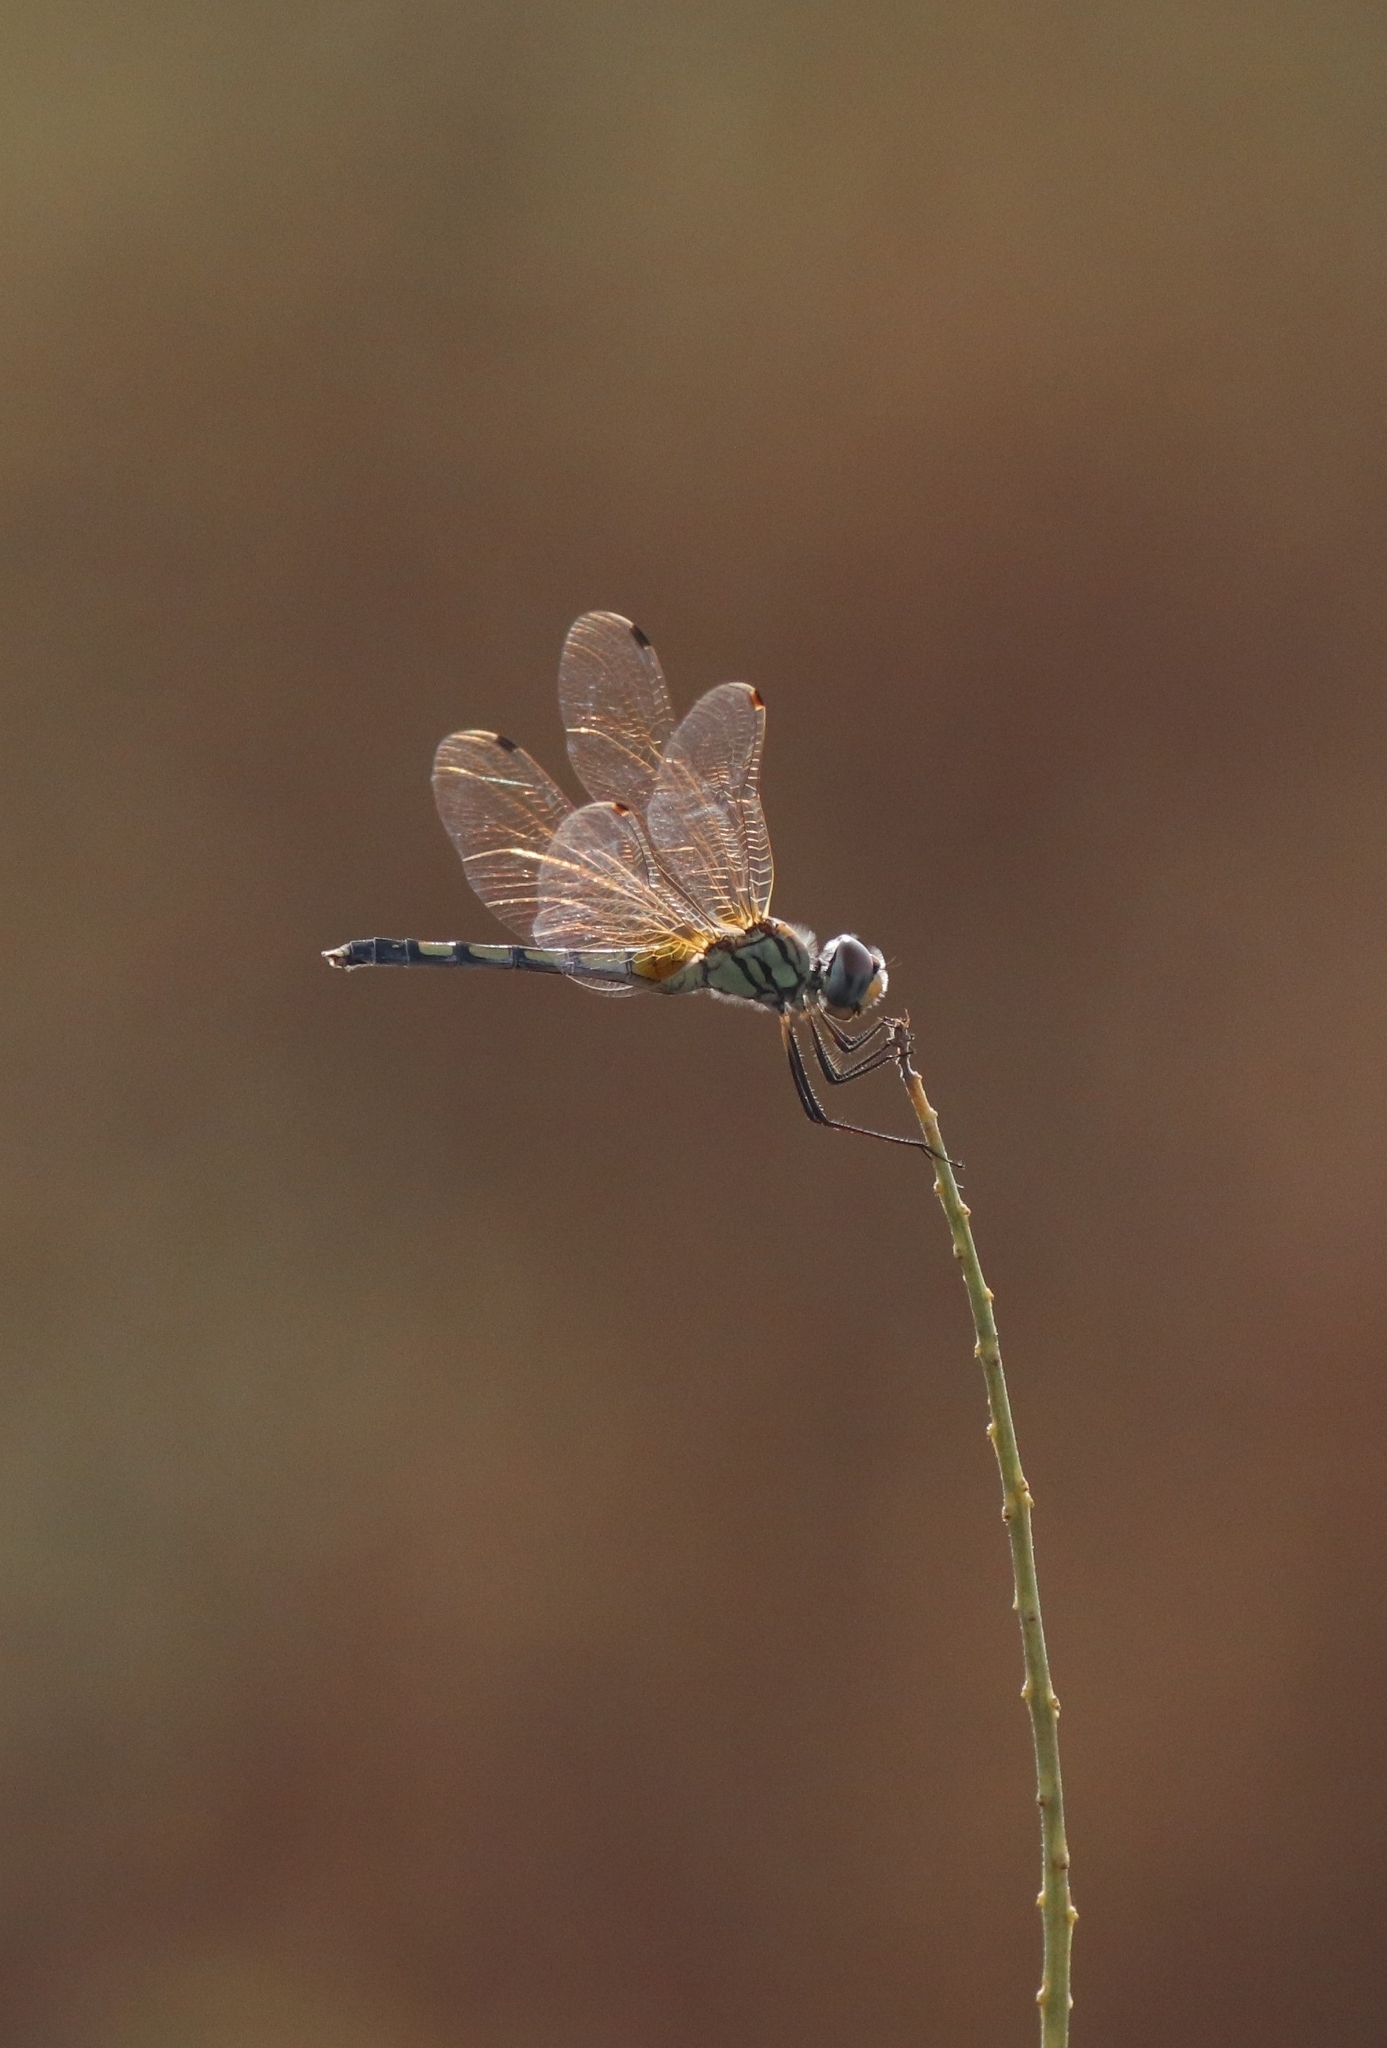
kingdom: Animalia
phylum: Arthropoda
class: Insecta
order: Odonata
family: Libellulidae
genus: Trithemis
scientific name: Trithemis pallidinervis
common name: Dancing dropwing
